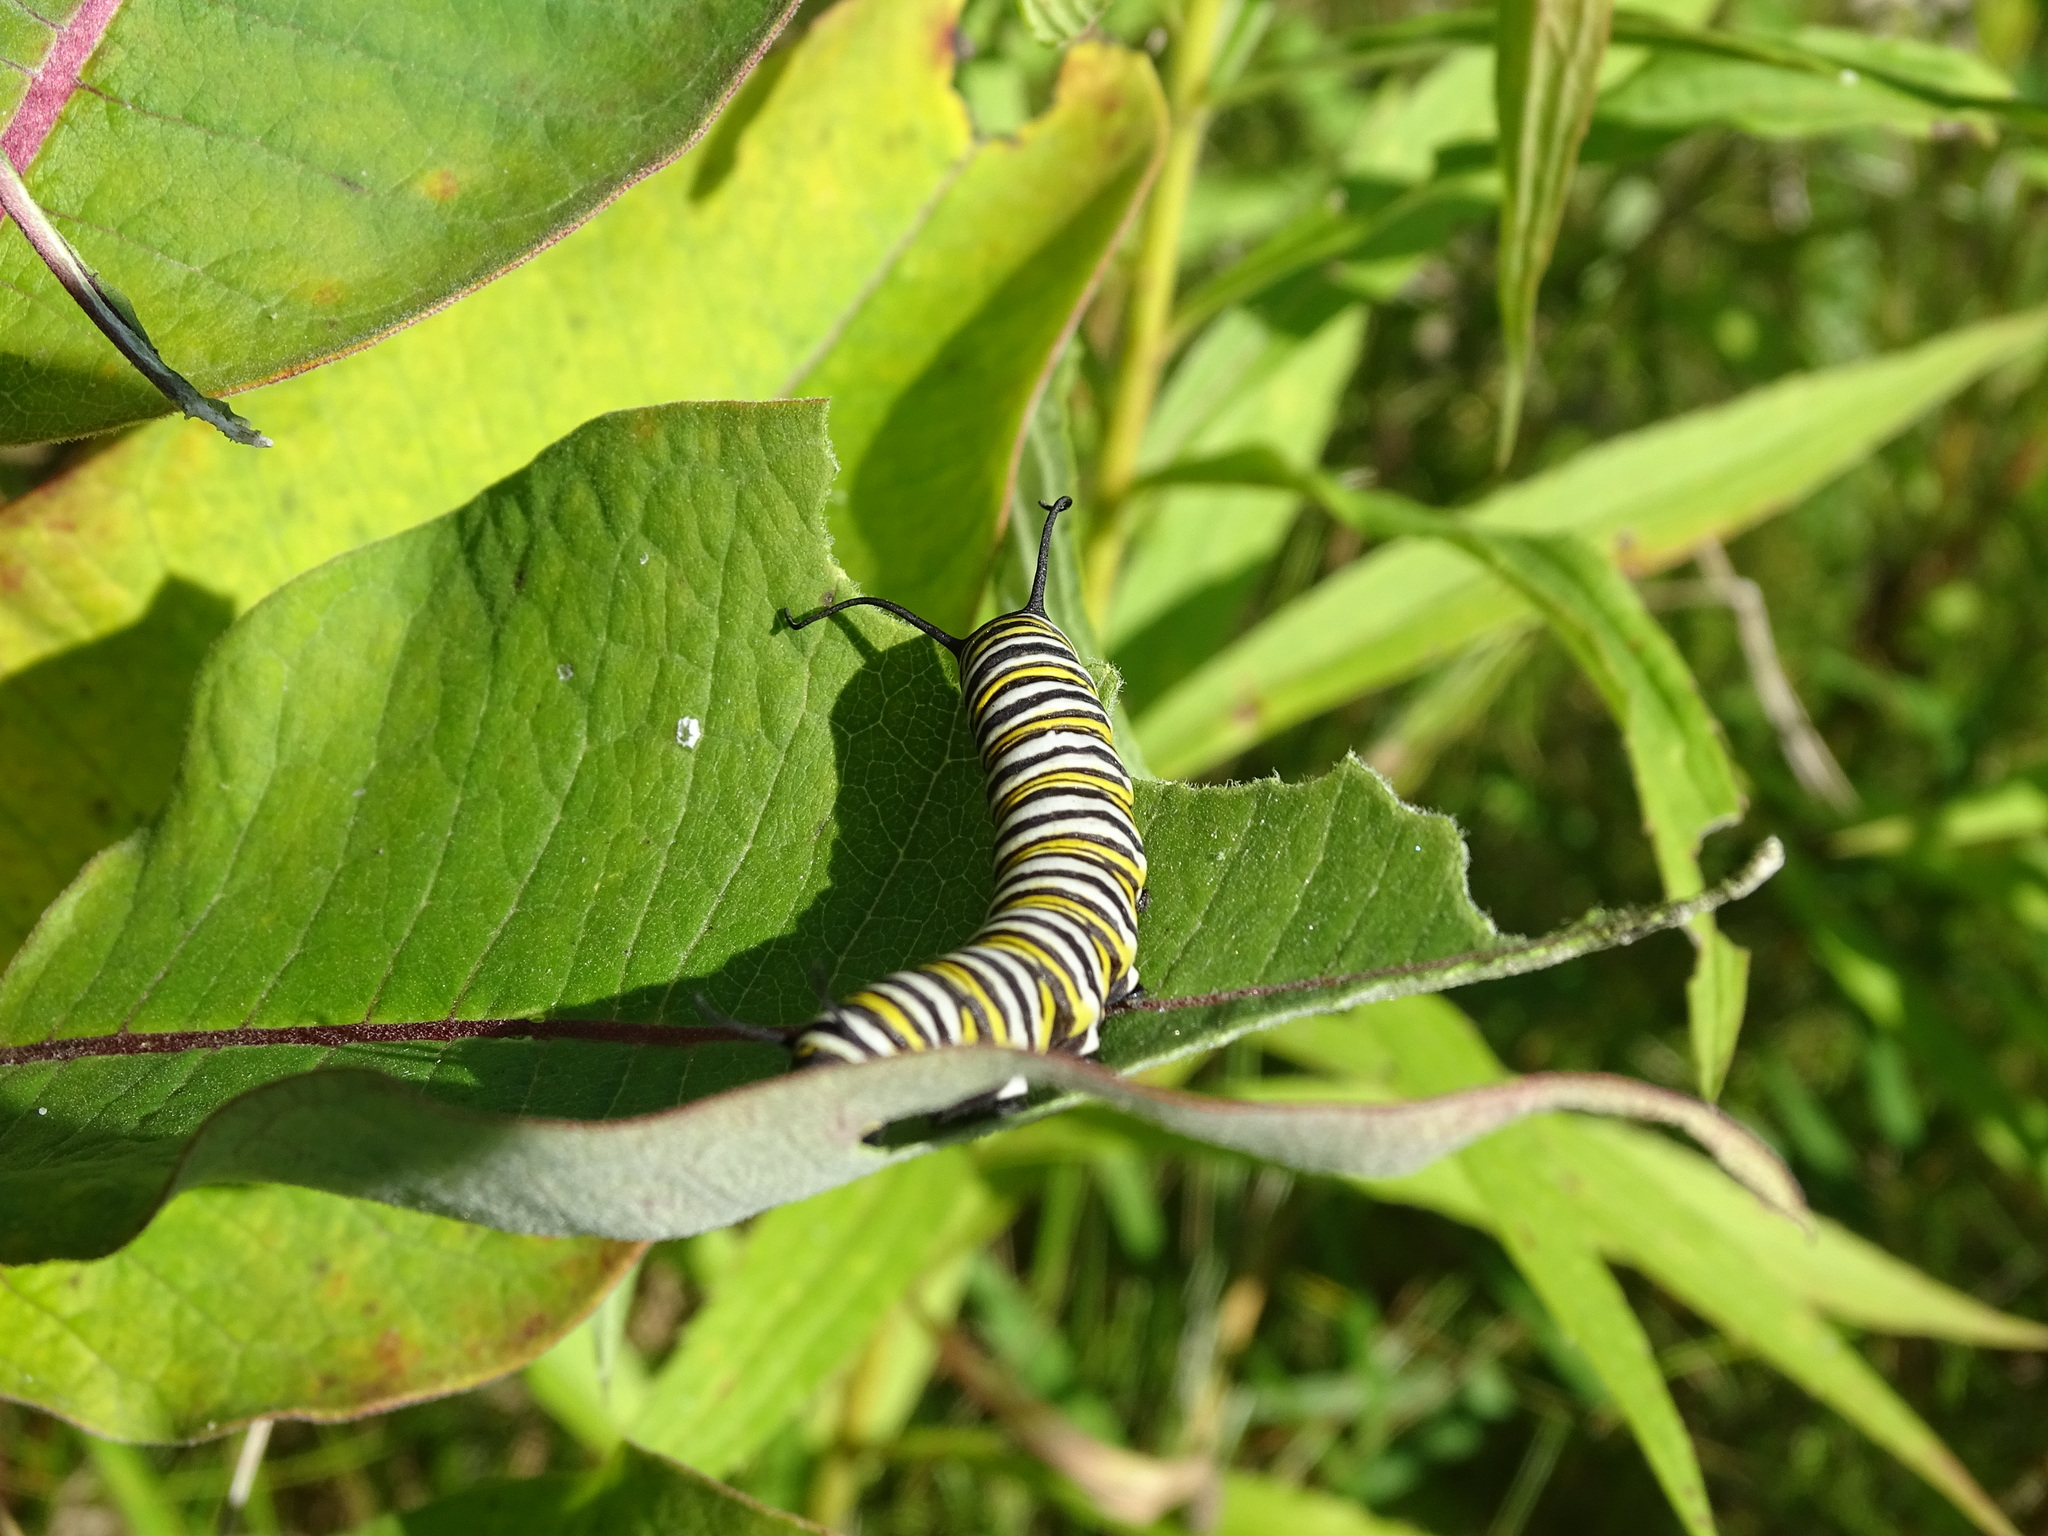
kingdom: Animalia
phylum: Arthropoda
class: Insecta
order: Lepidoptera
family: Nymphalidae
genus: Danaus
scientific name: Danaus plexippus
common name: Monarch
